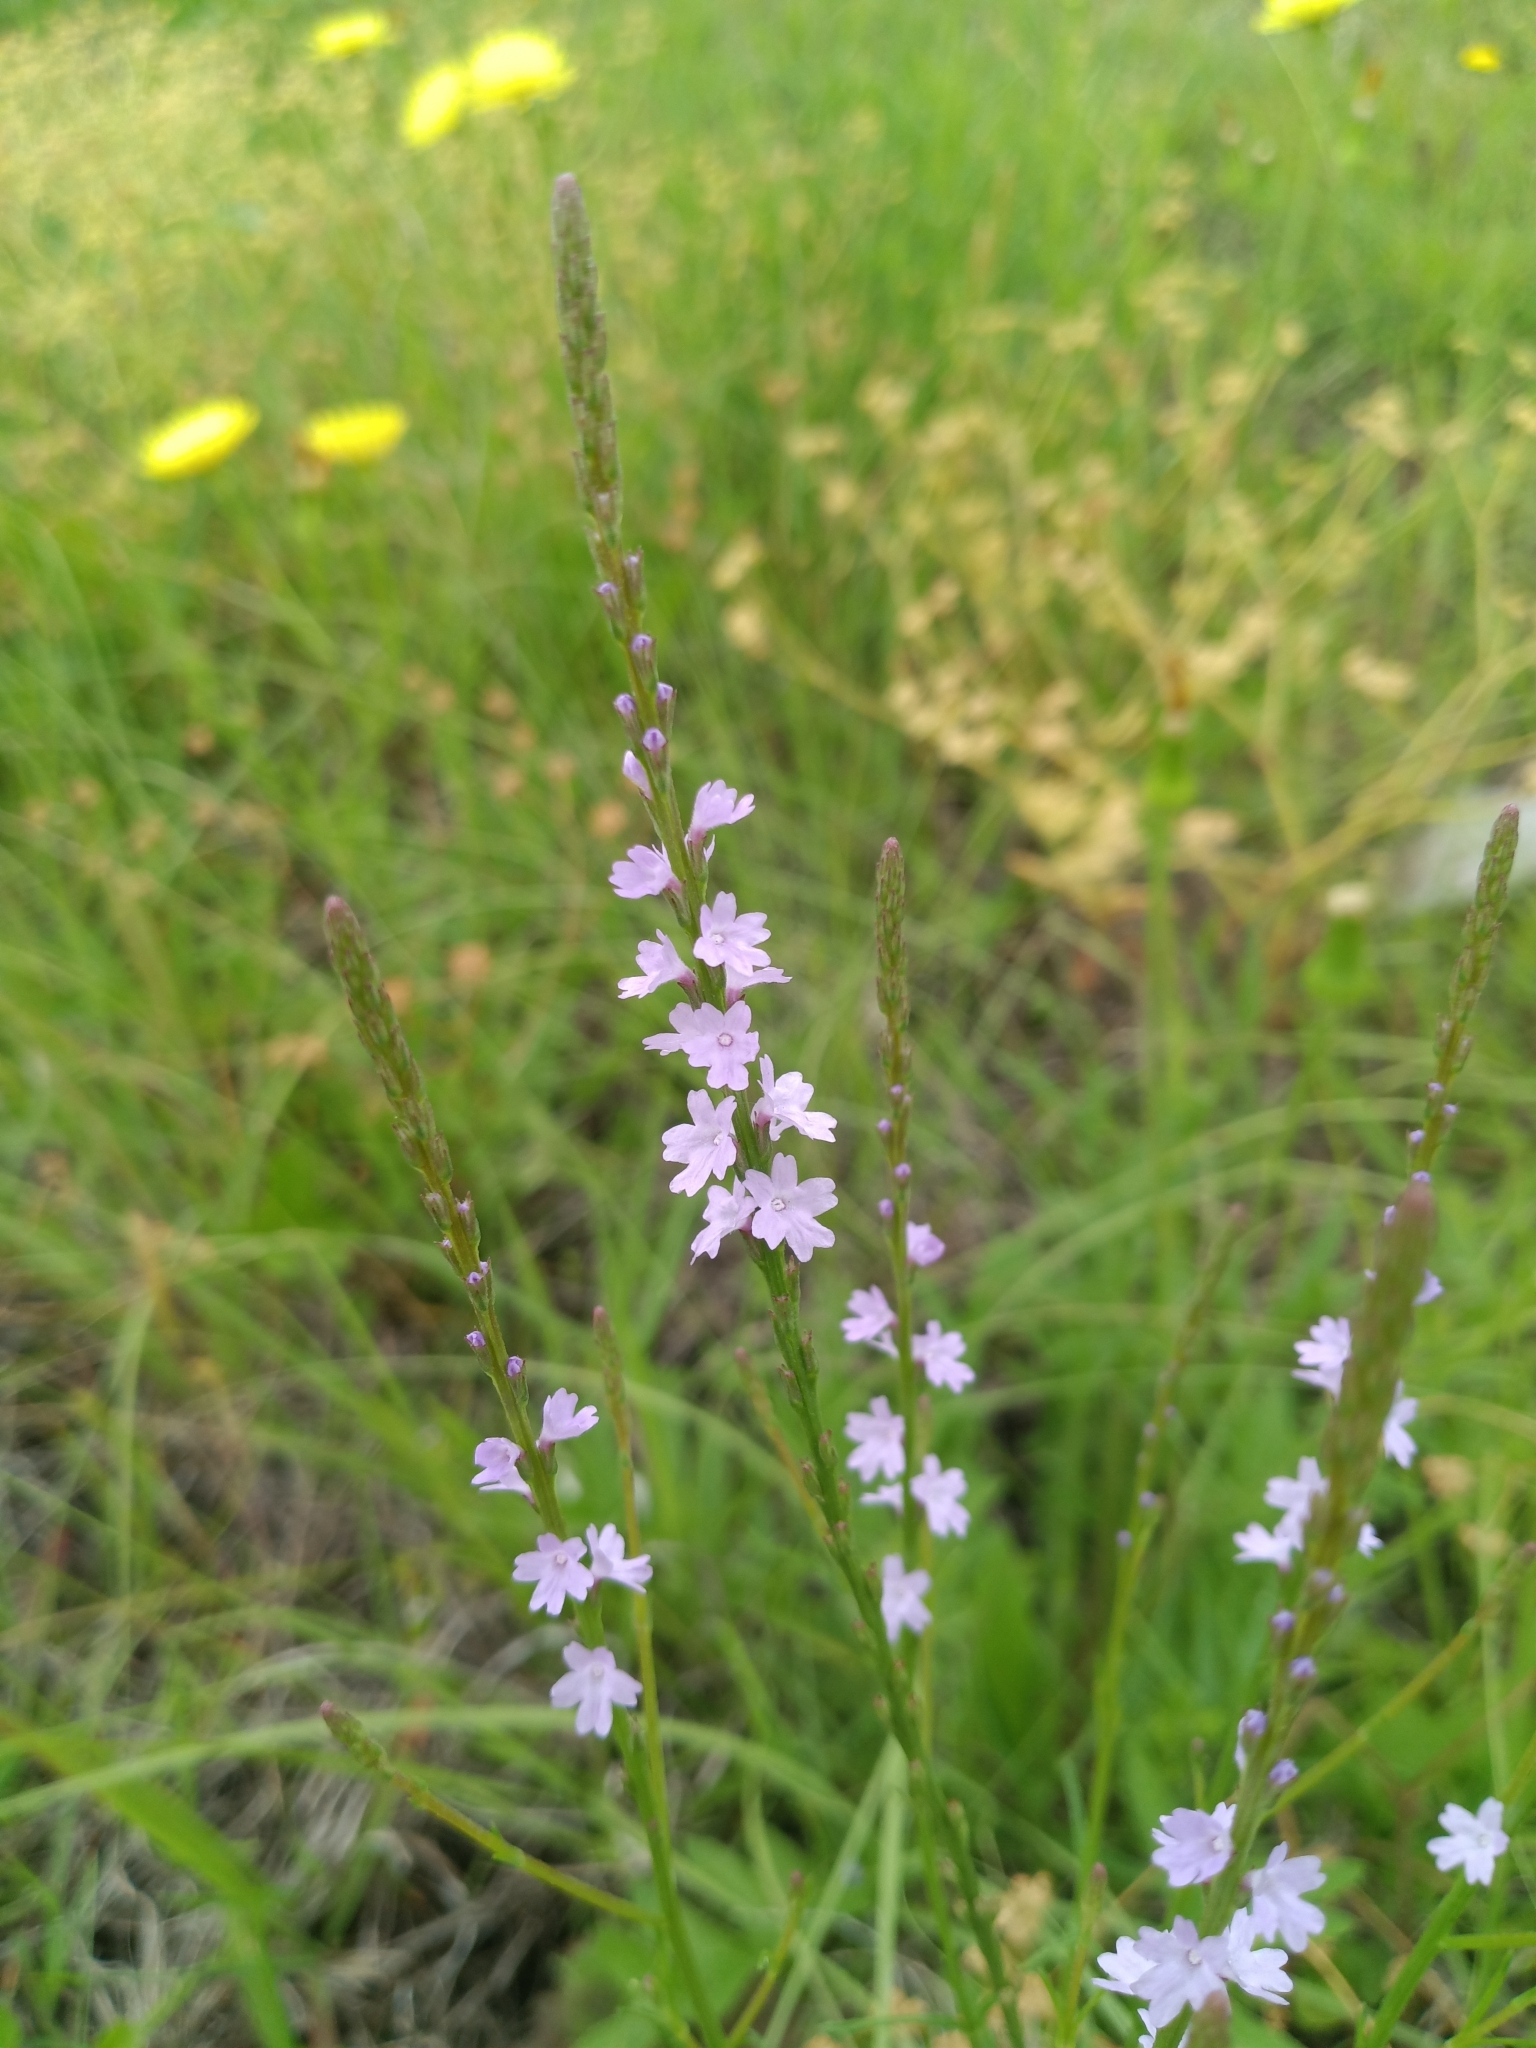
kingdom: Plantae
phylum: Tracheophyta
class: Magnoliopsida
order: Lamiales
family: Verbenaceae
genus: Verbena
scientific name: Verbena halei
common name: Texas vervain
